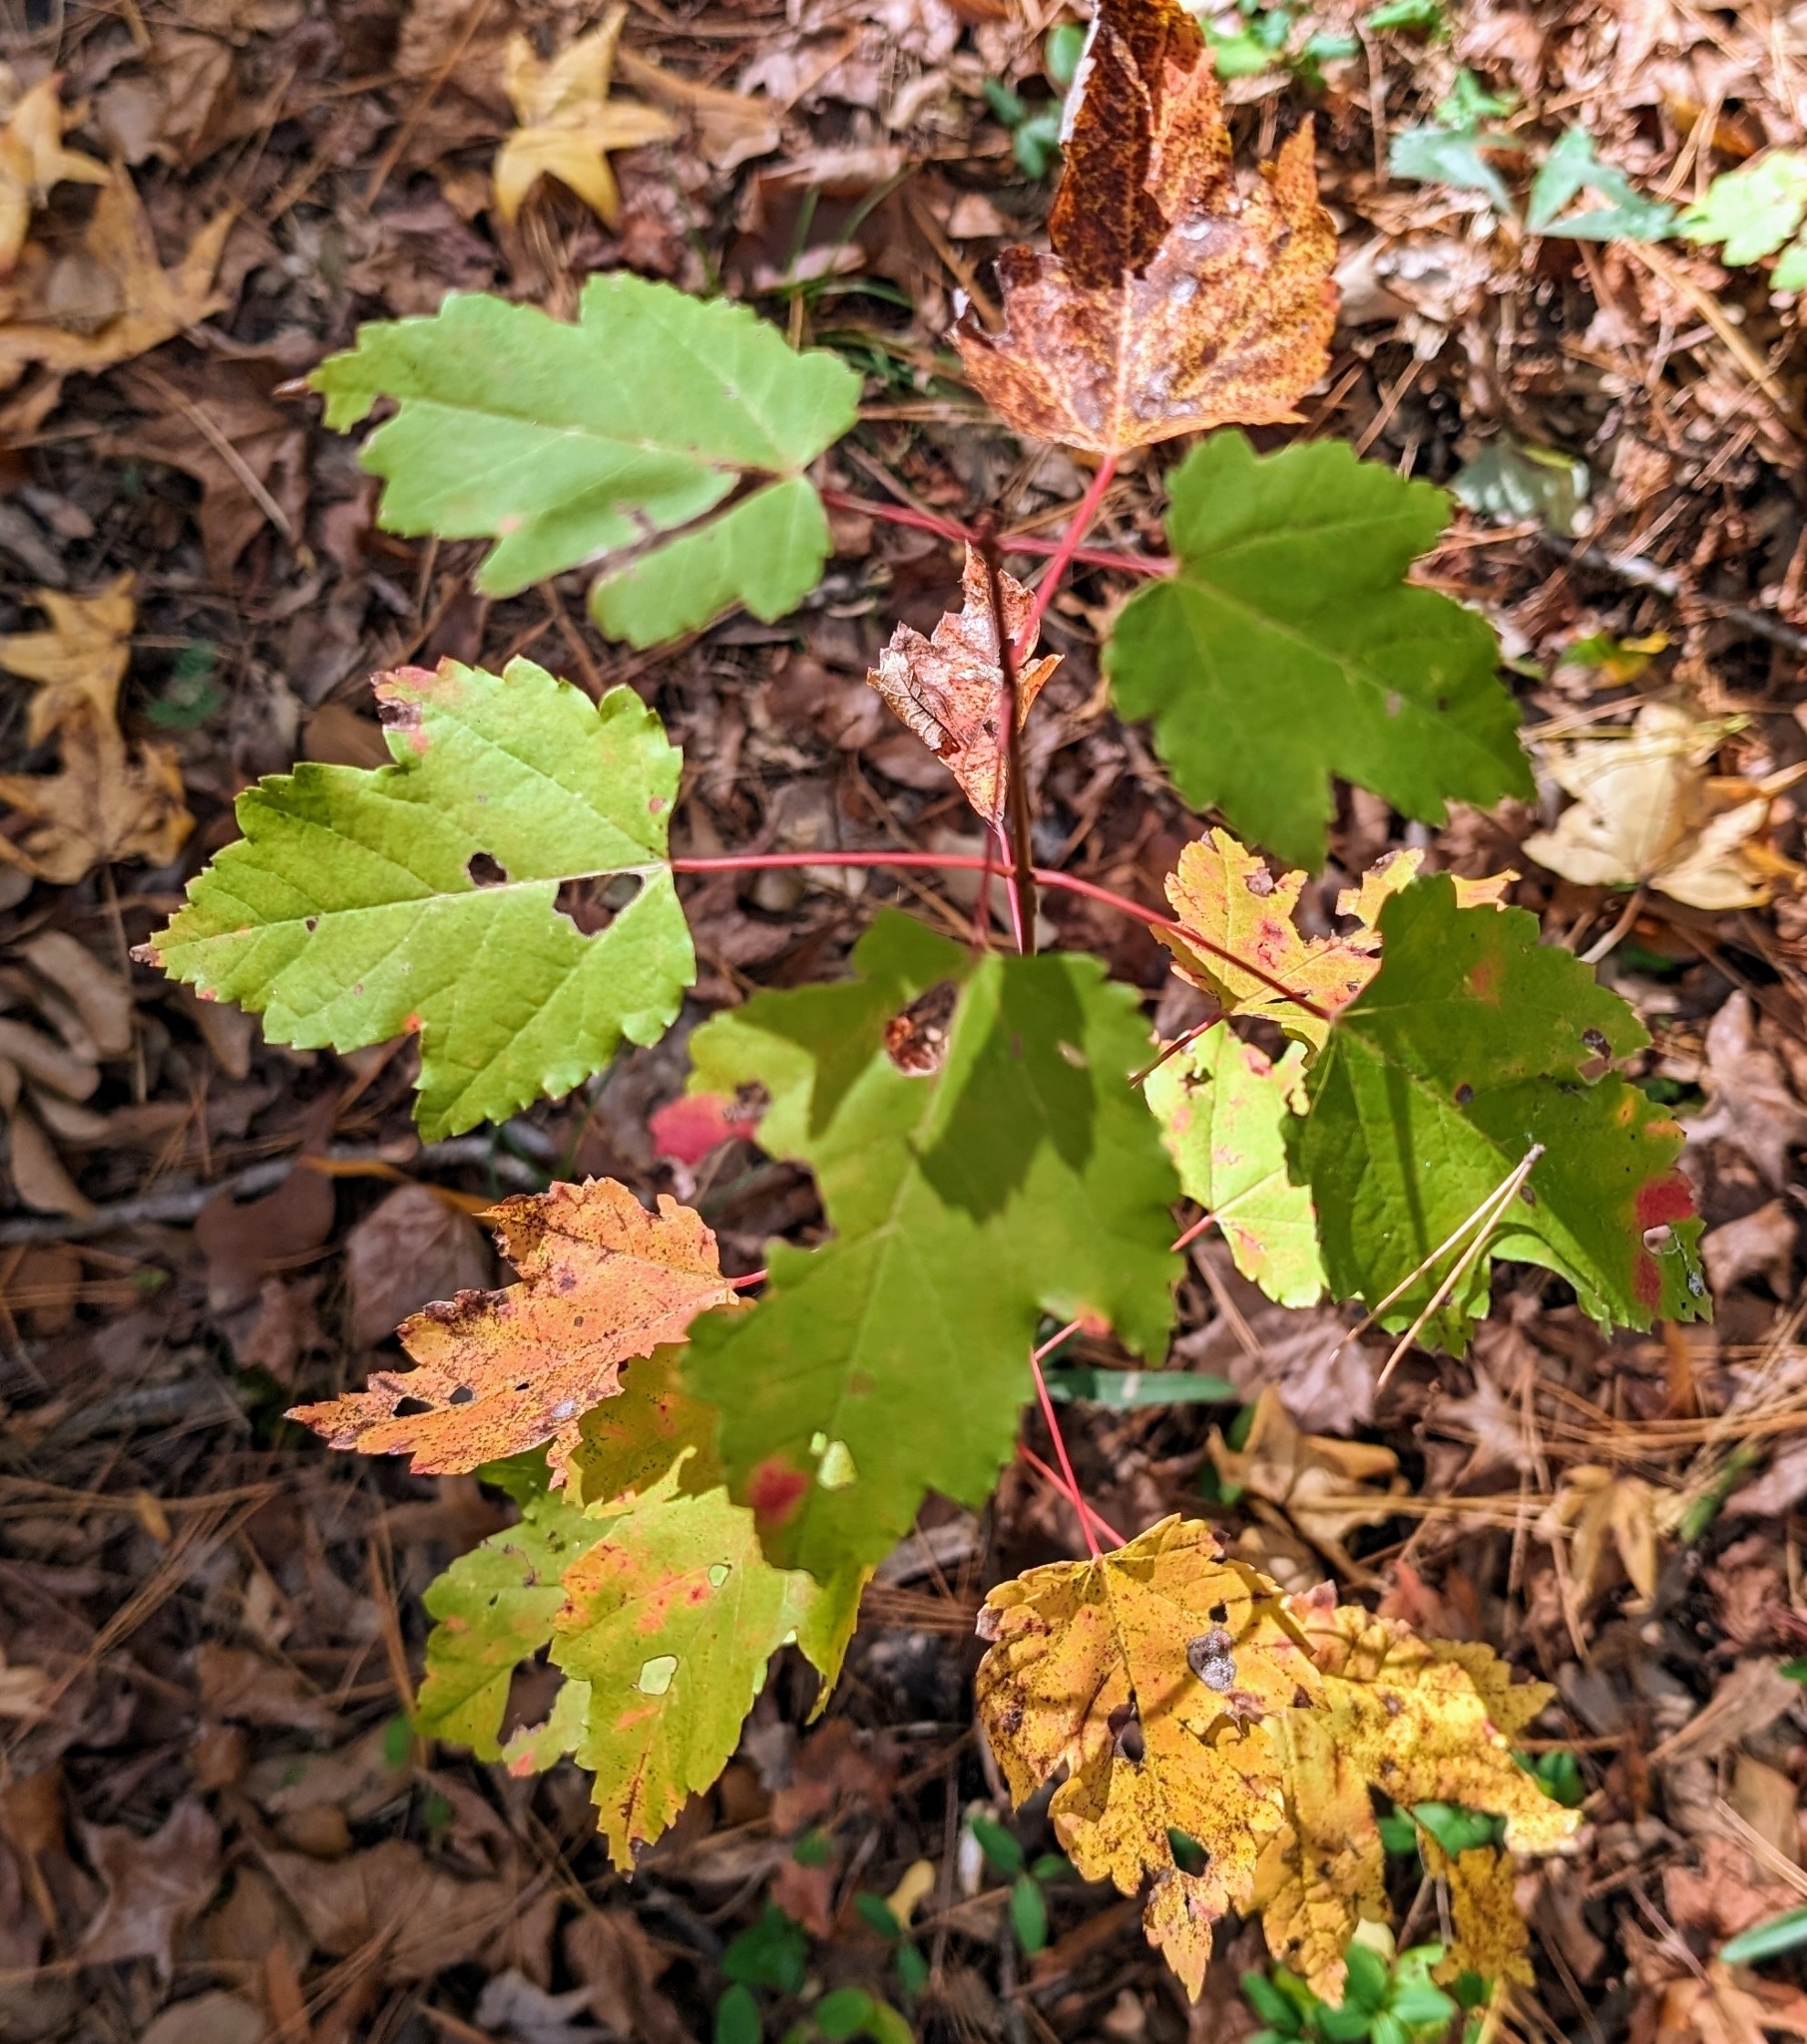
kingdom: Plantae
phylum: Tracheophyta
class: Magnoliopsida
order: Sapindales
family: Sapindaceae
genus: Acer
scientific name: Acer rubrum
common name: Red maple
